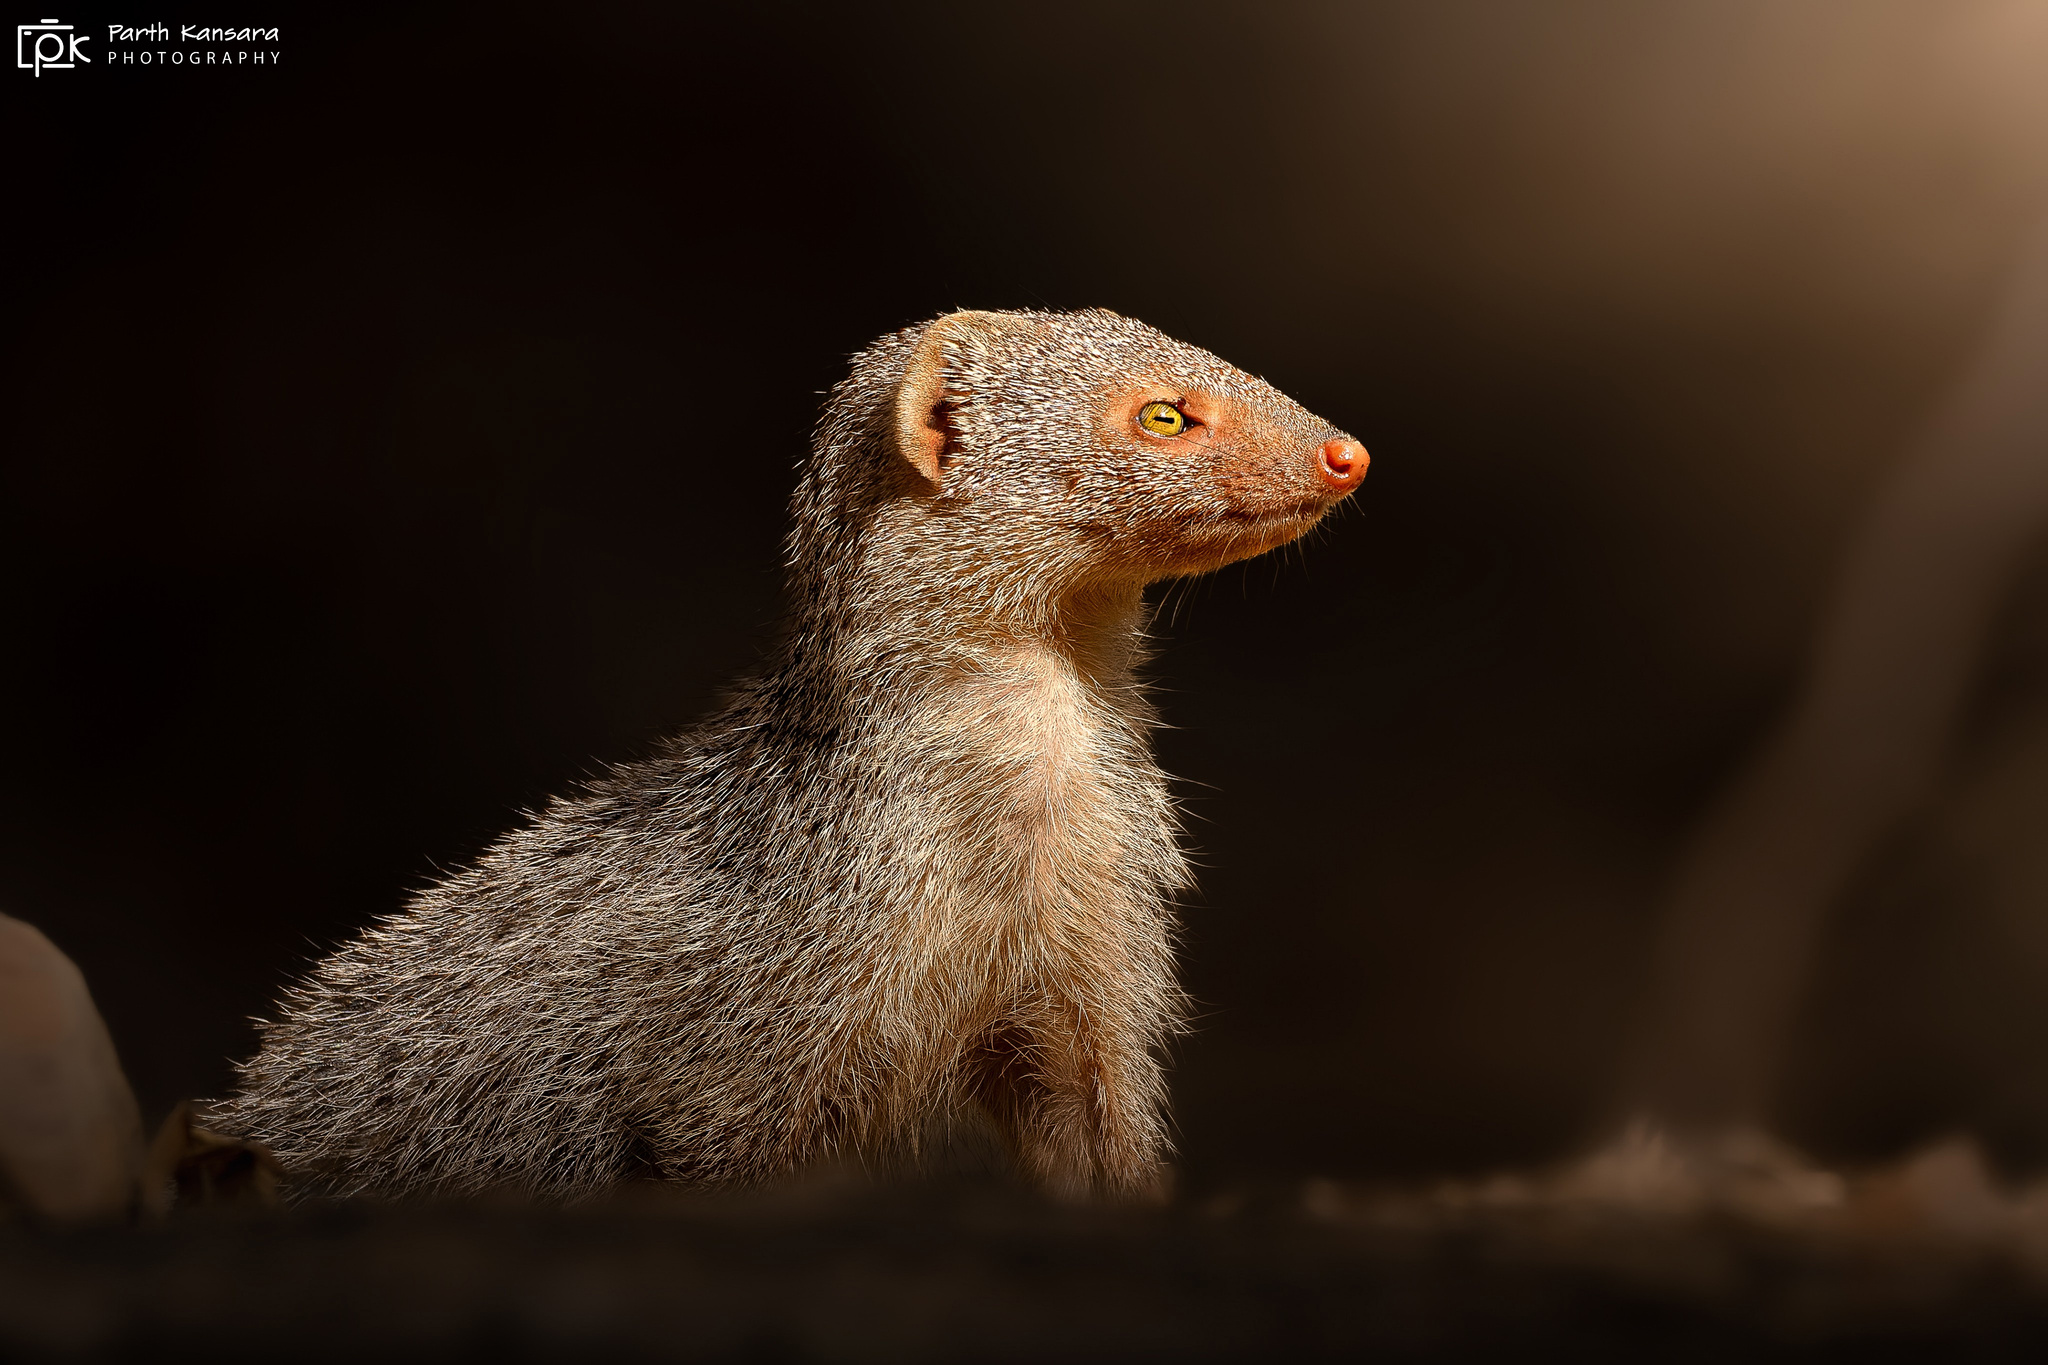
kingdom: Animalia
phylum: Chordata
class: Mammalia
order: Carnivora
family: Herpestidae
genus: Herpestes
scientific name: Herpestes edwardsi
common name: Indian gray mongoose
